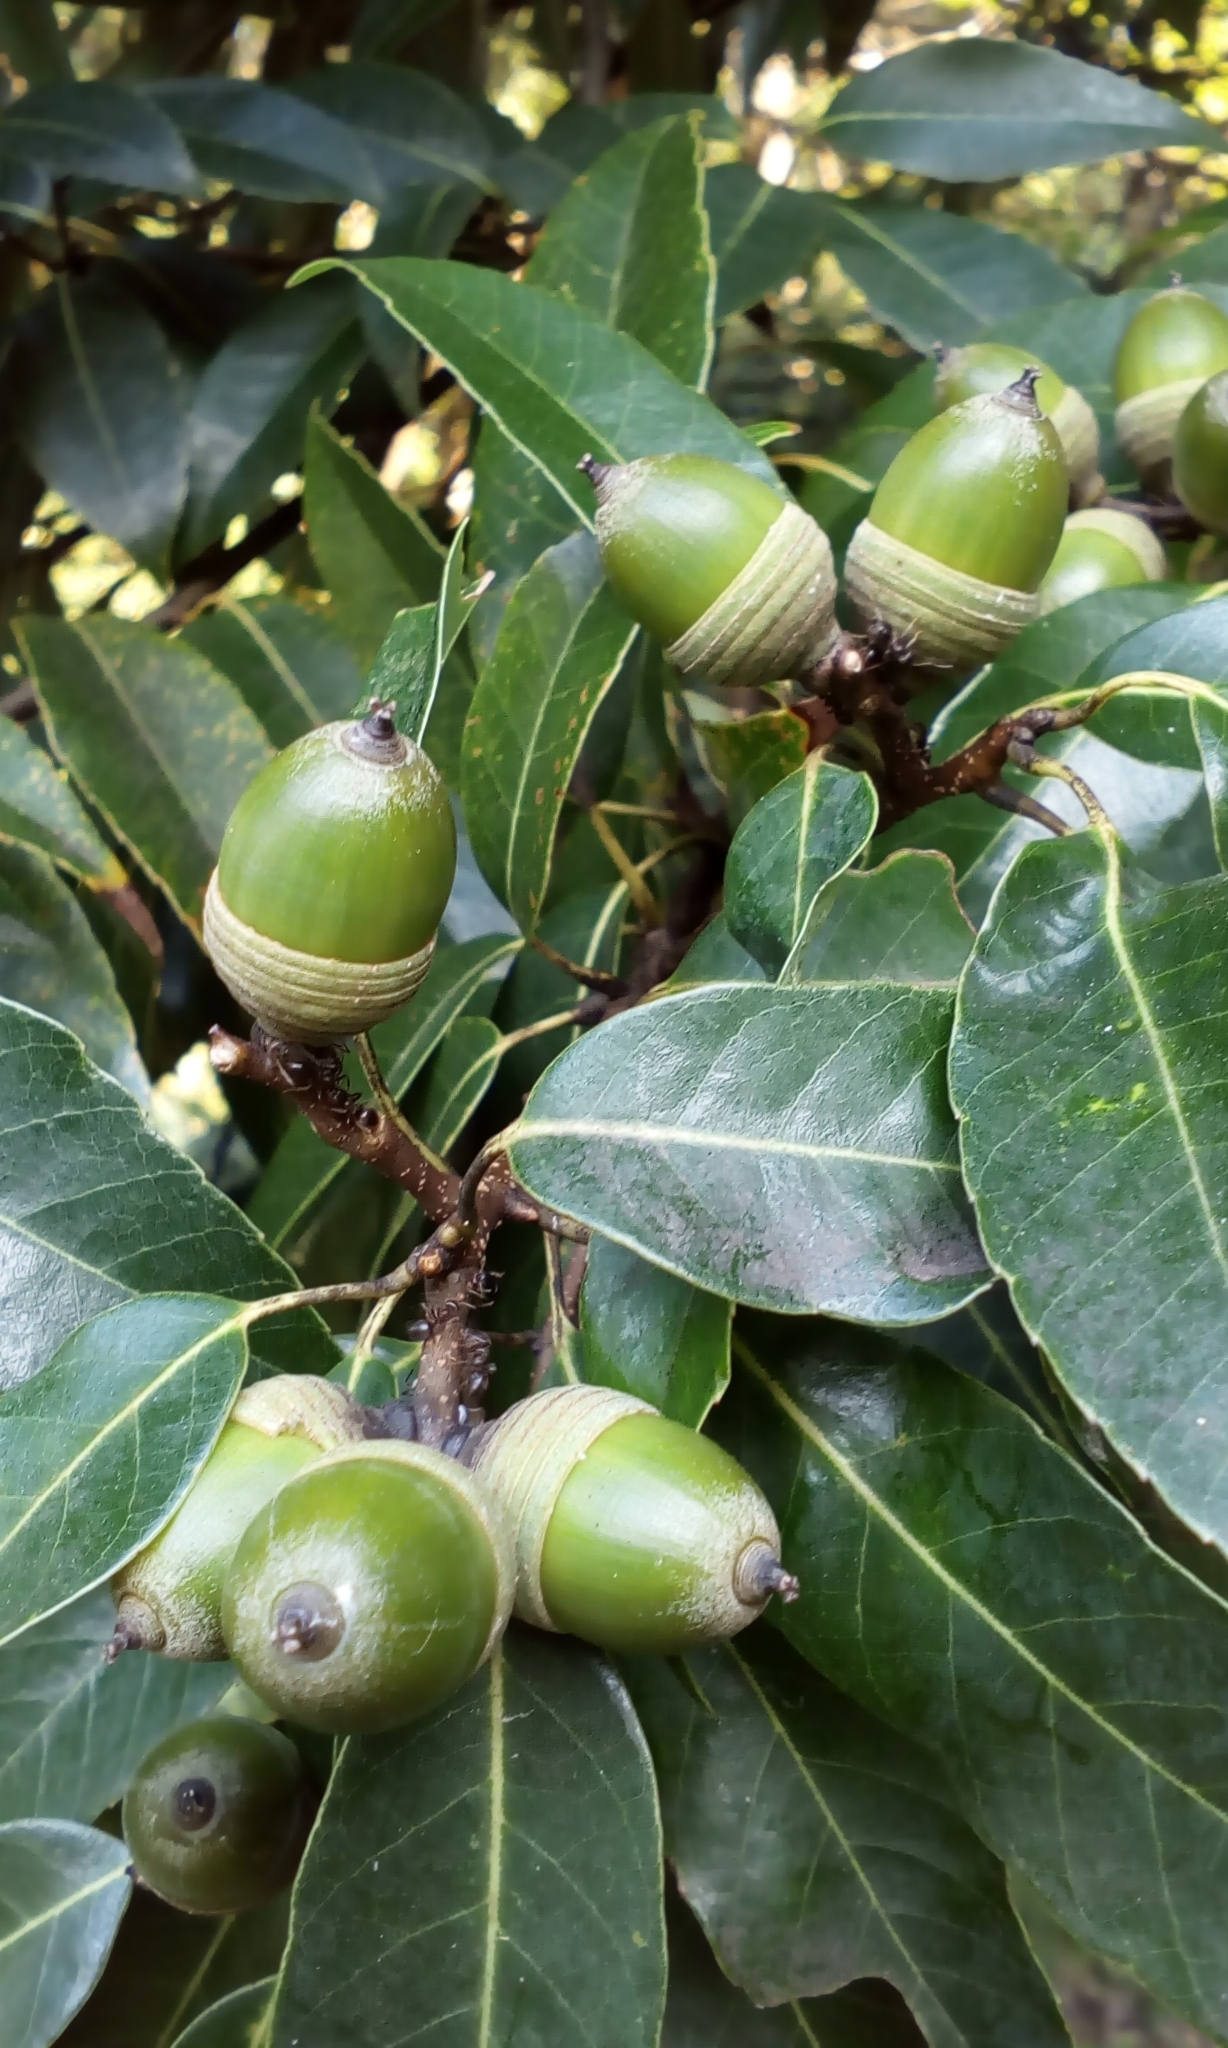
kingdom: Plantae
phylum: Tracheophyta
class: Magnoliopsida
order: Fagales
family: Fagaceae
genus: Quercus
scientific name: Quercus myrsinifolia
